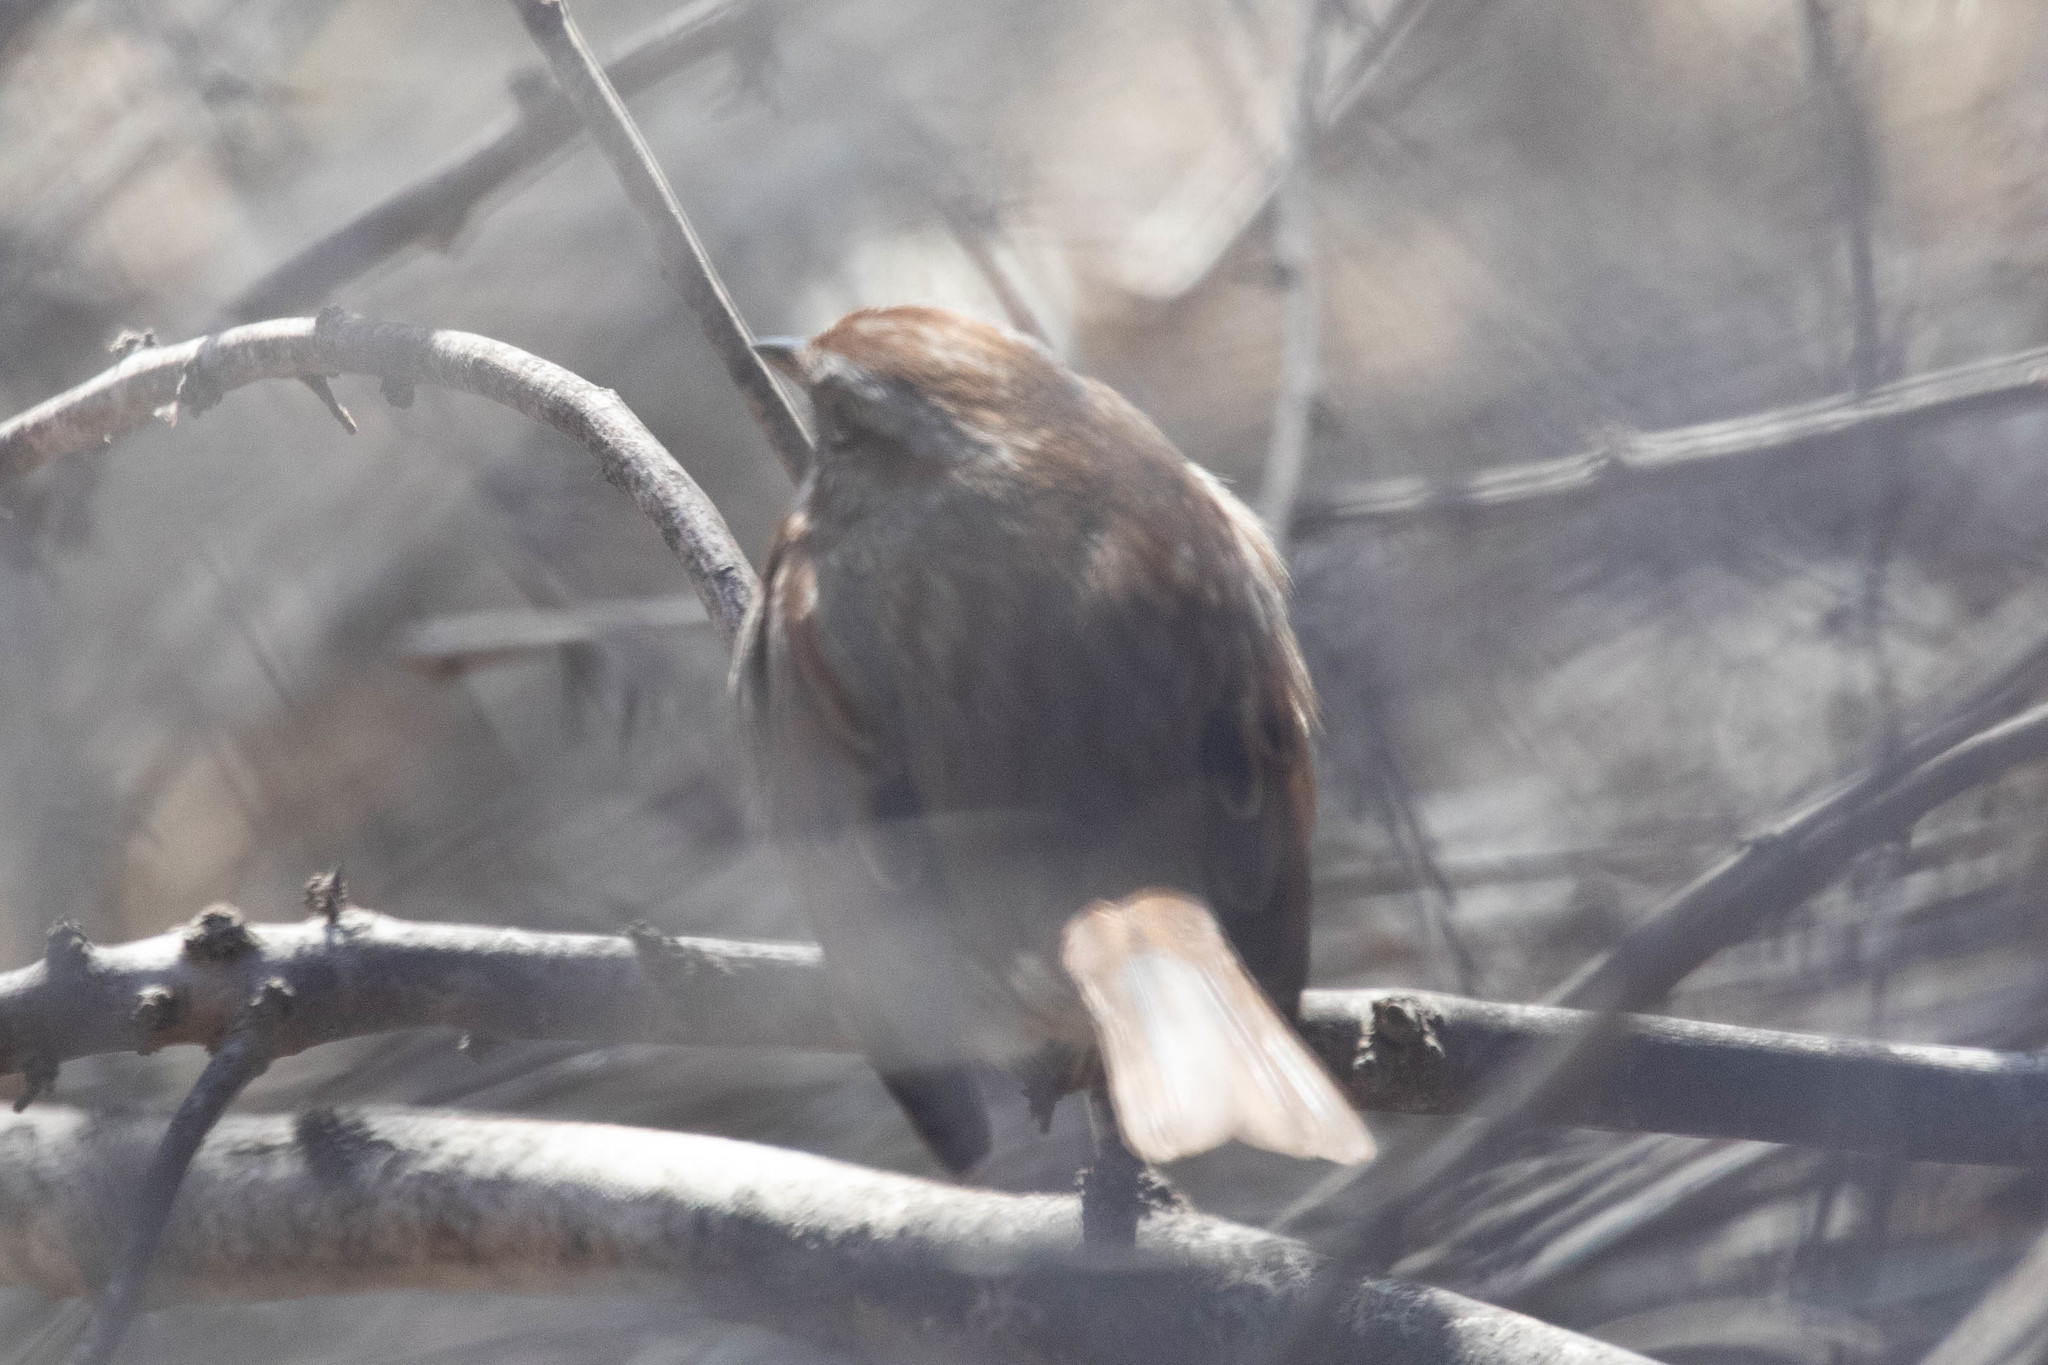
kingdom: Animalia
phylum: Chordata
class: Aves
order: Passeriformes
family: Passerellidae
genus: Melospiza
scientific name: Melospiza melodia
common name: Song sparrow
